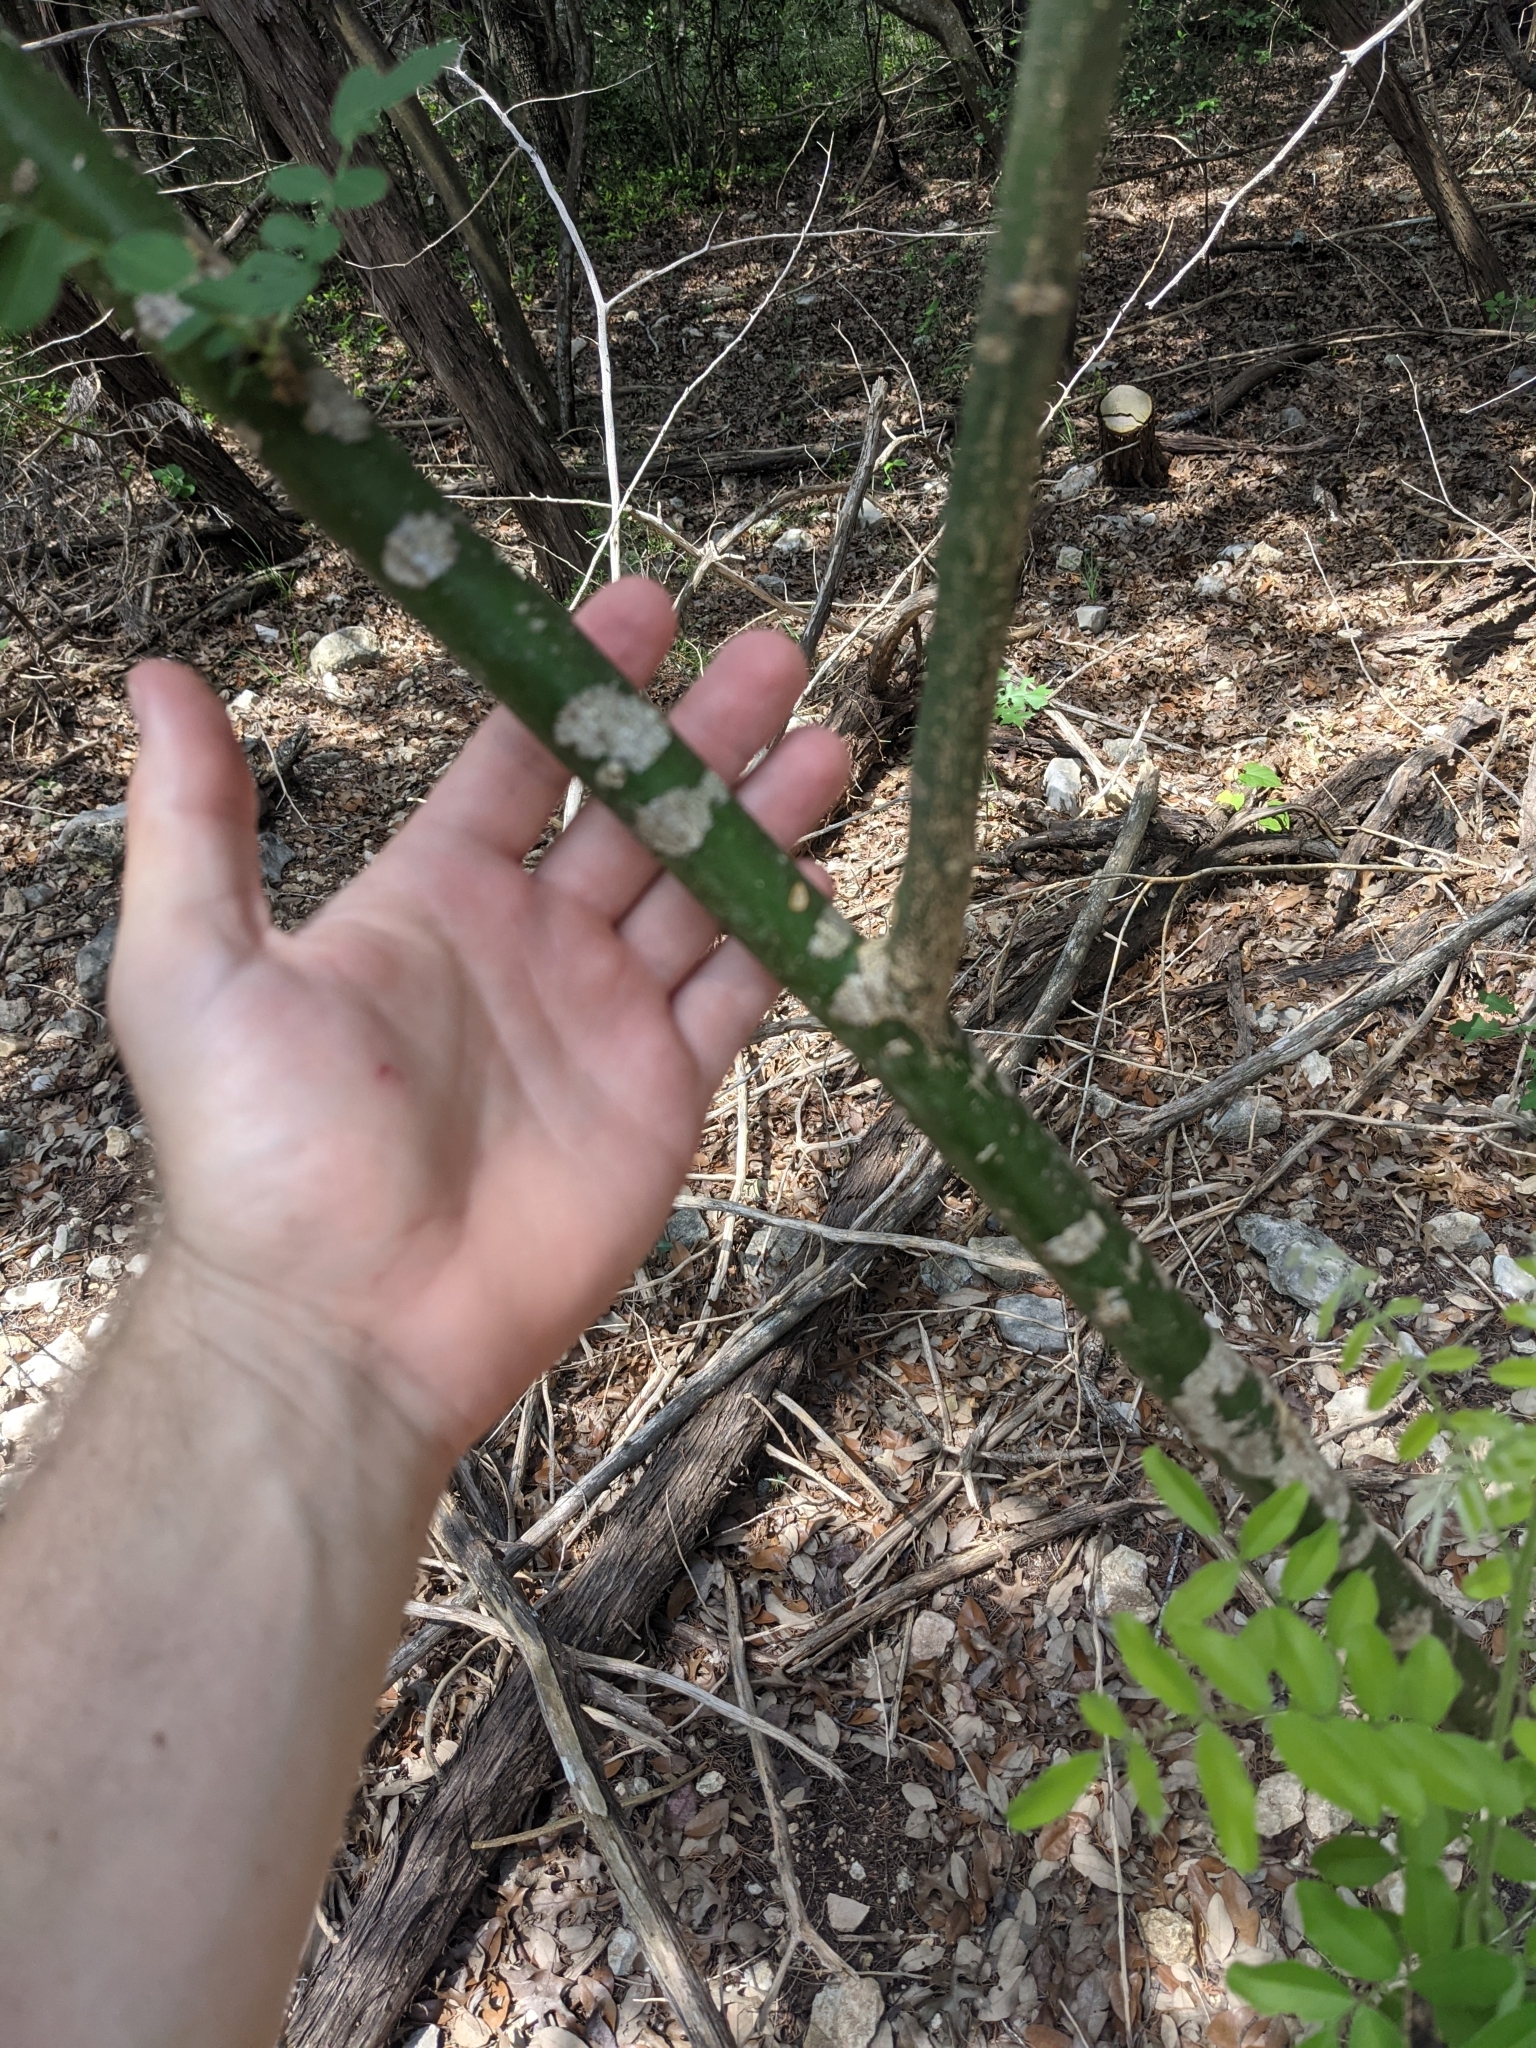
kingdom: Plantae
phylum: Tracheophyta
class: Magnoliopsida
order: Fabales
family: Fabaceae
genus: Styphnolobium
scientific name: Styphnolobium affine
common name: Texas sophora
